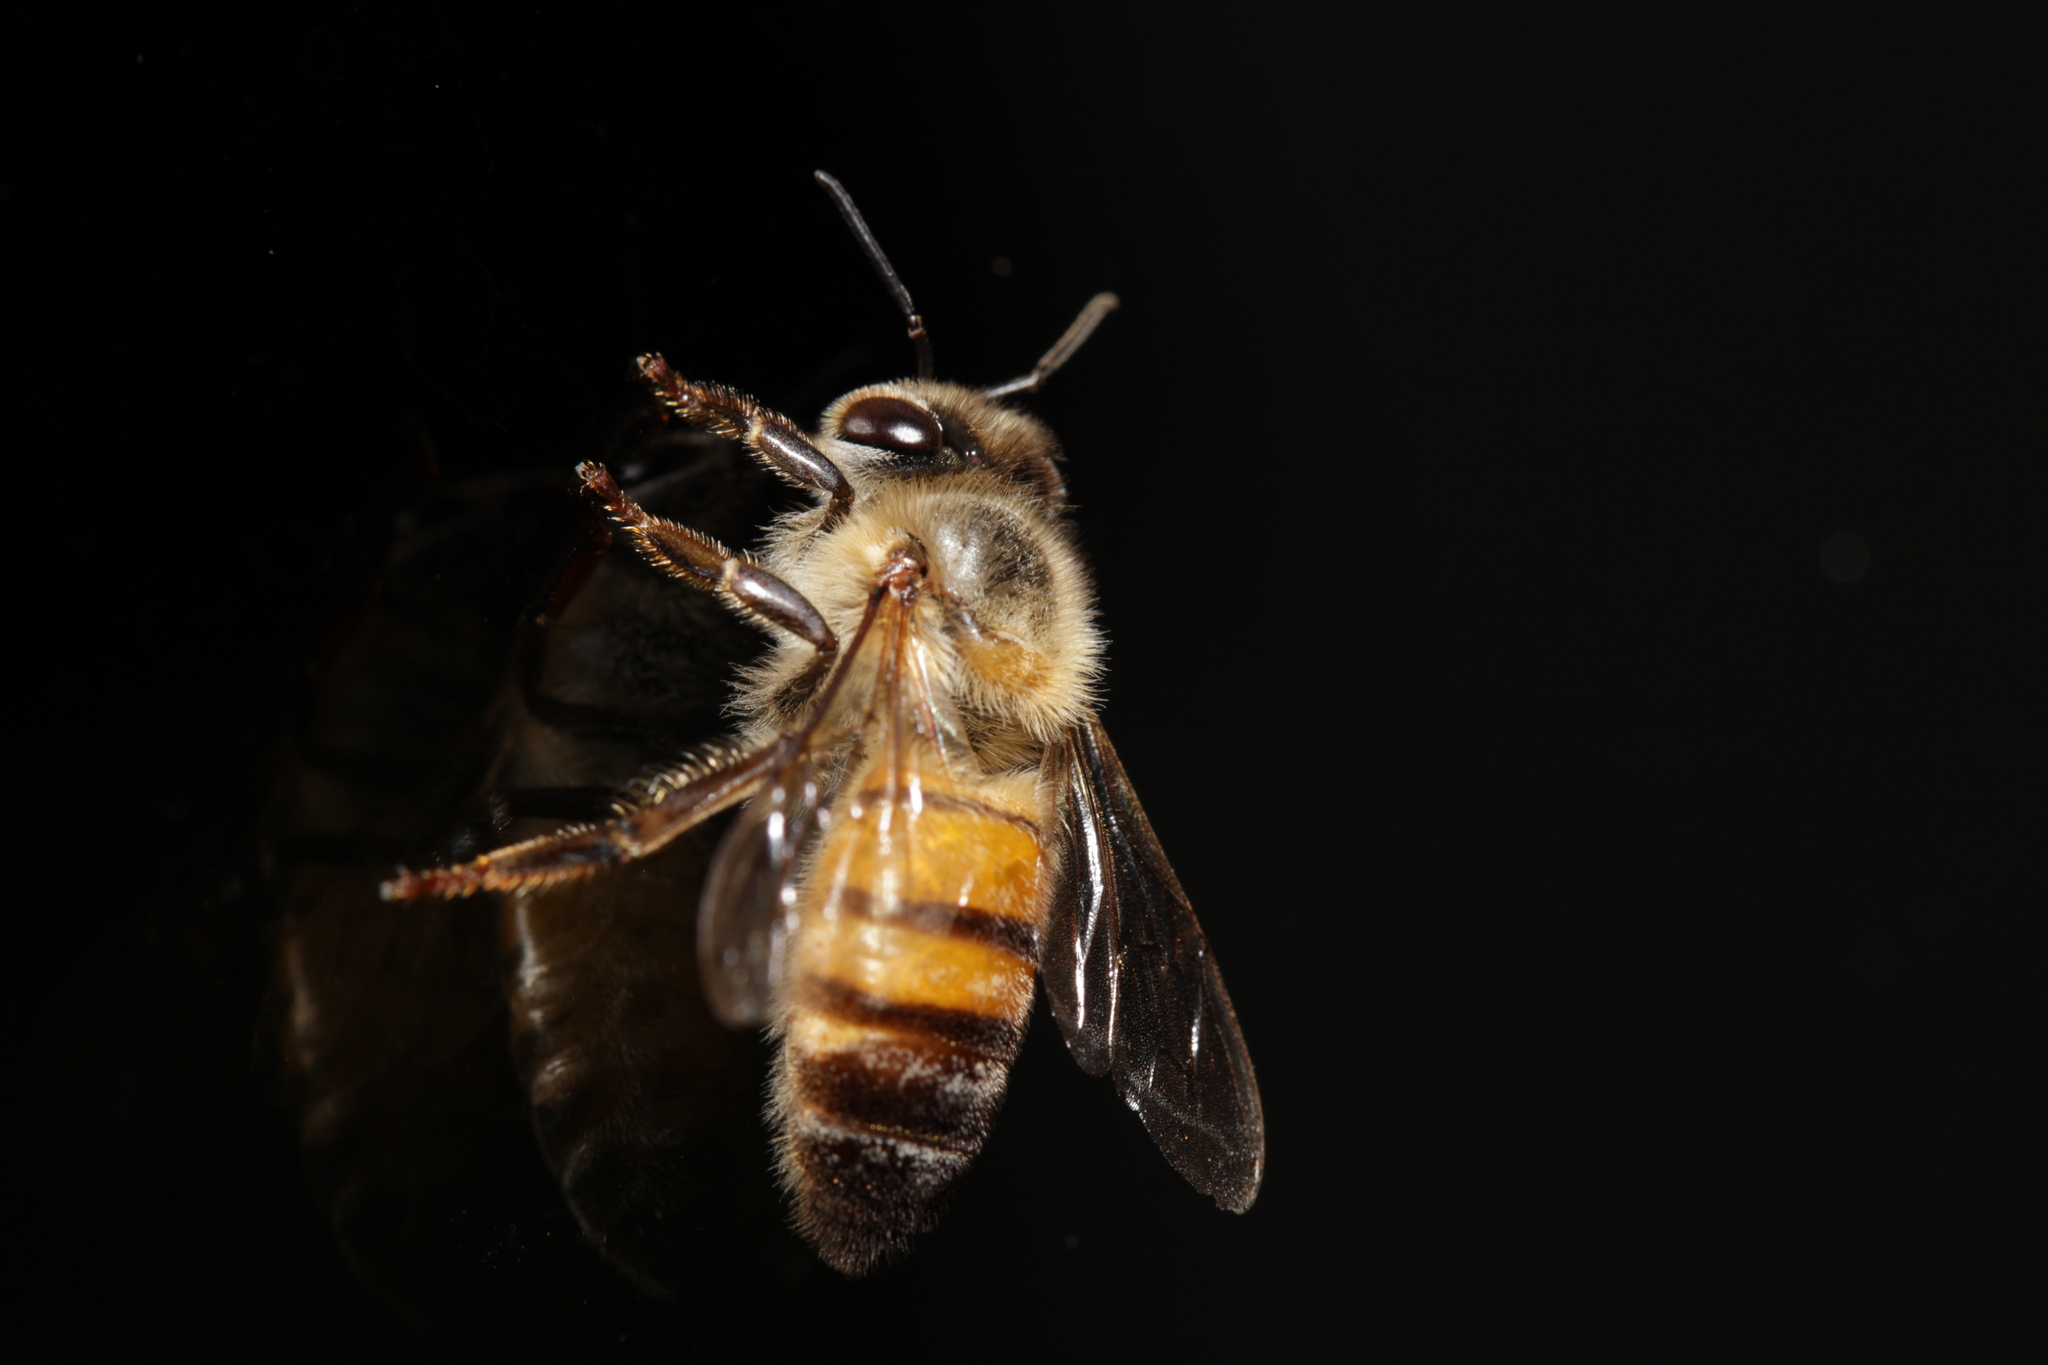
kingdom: Animalia
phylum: Arthropoda
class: Insecta
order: Hymenoptera
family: Apidae
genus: Apis
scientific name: Apis mellifera
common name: Honey bee
